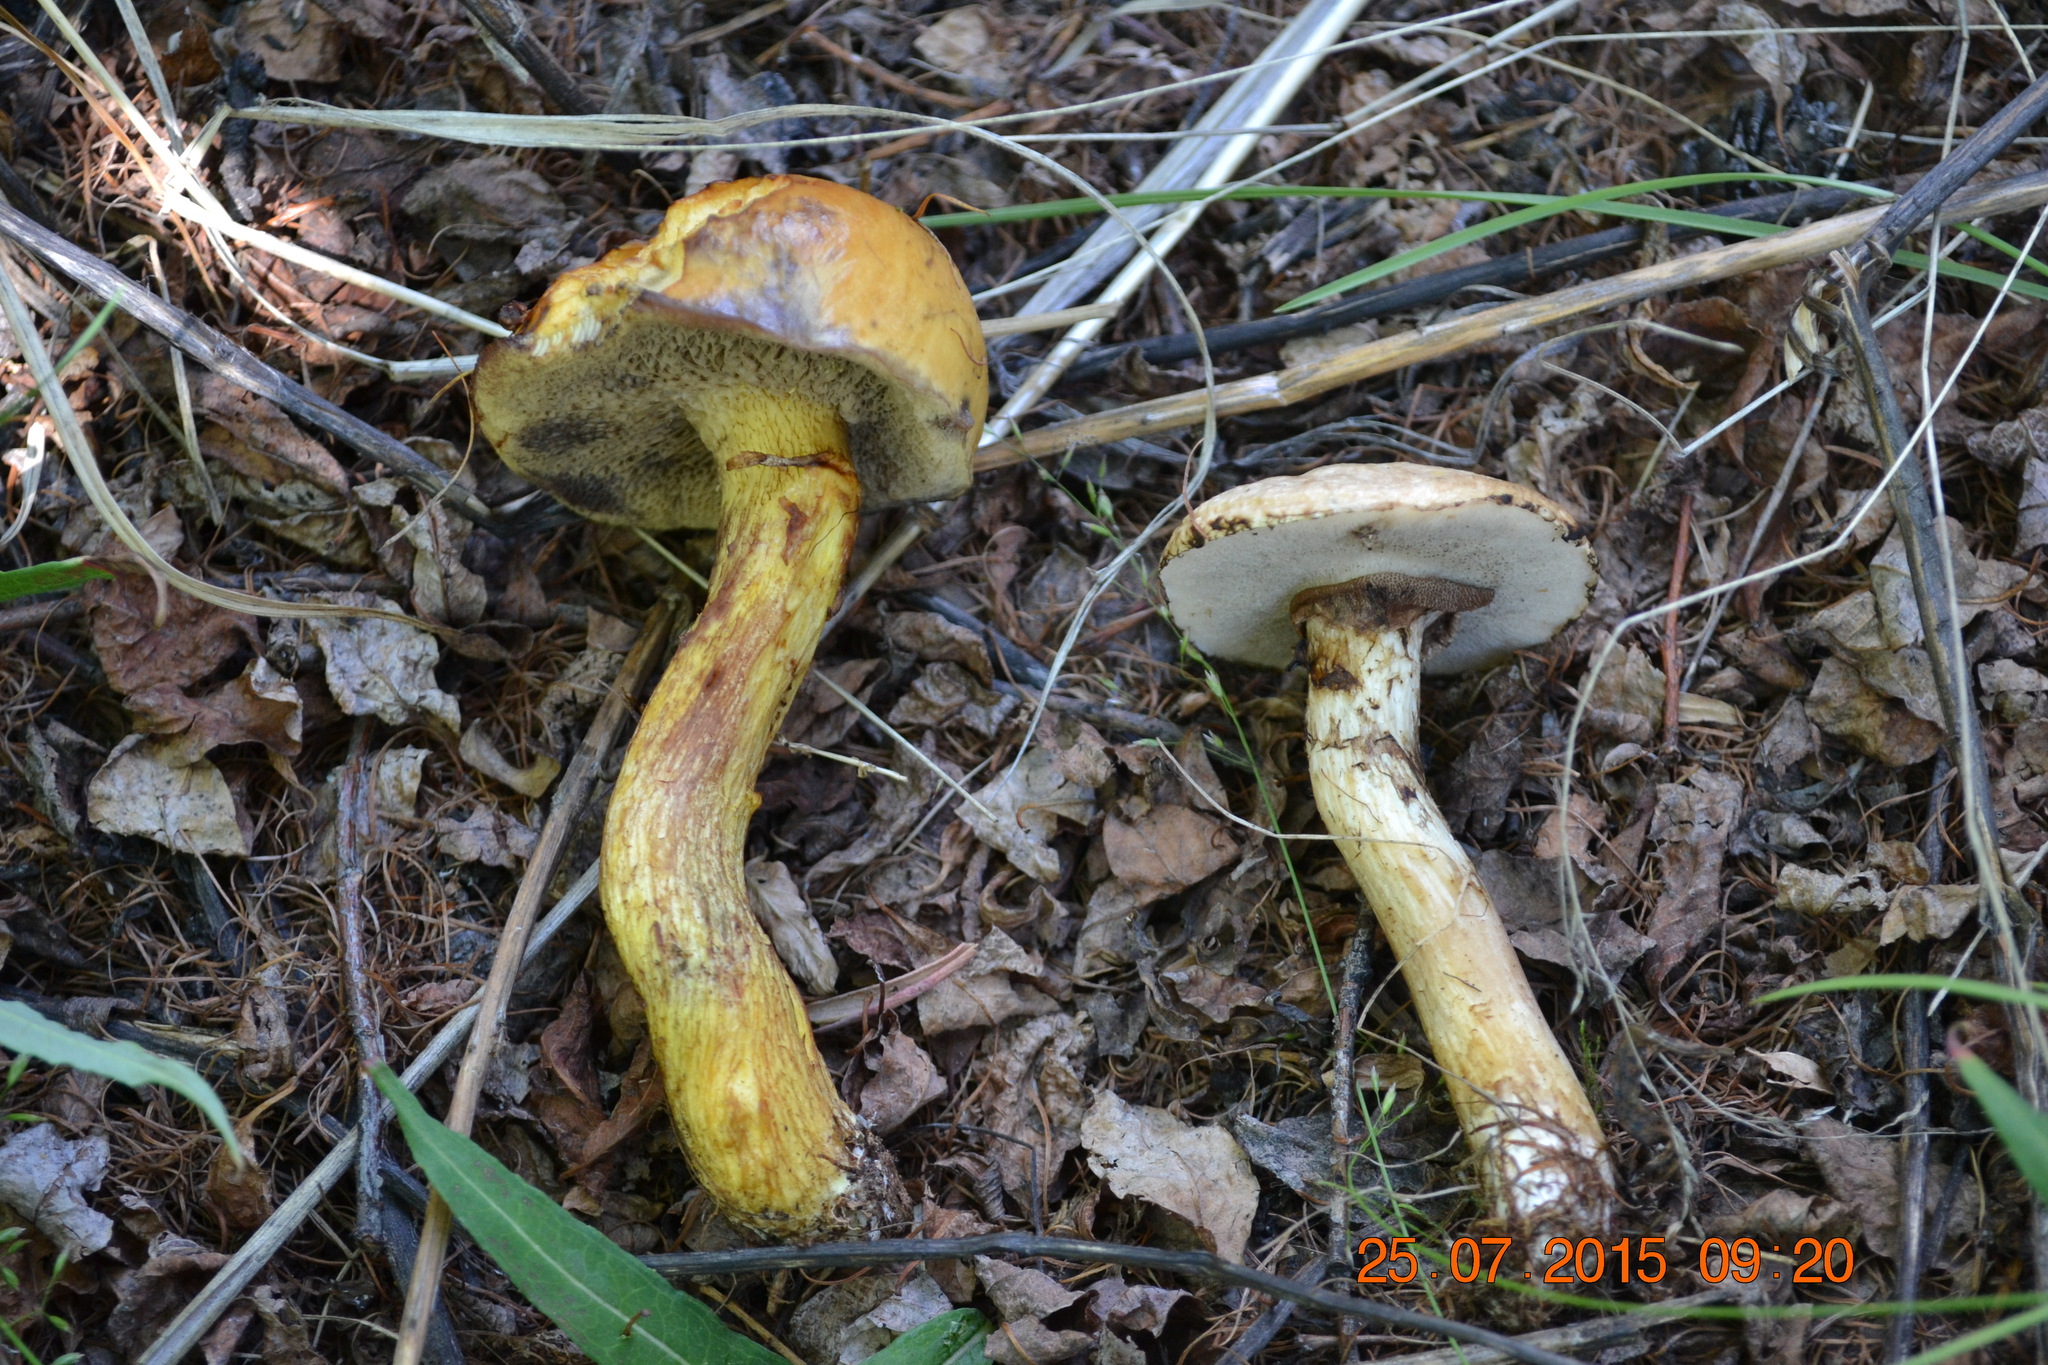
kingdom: Fungi
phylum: Basidiomycota
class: Agaricomycetes
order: Boletales
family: Suillaceae
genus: Suillus
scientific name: Suillus americanus
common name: Chicken fat mushroom
